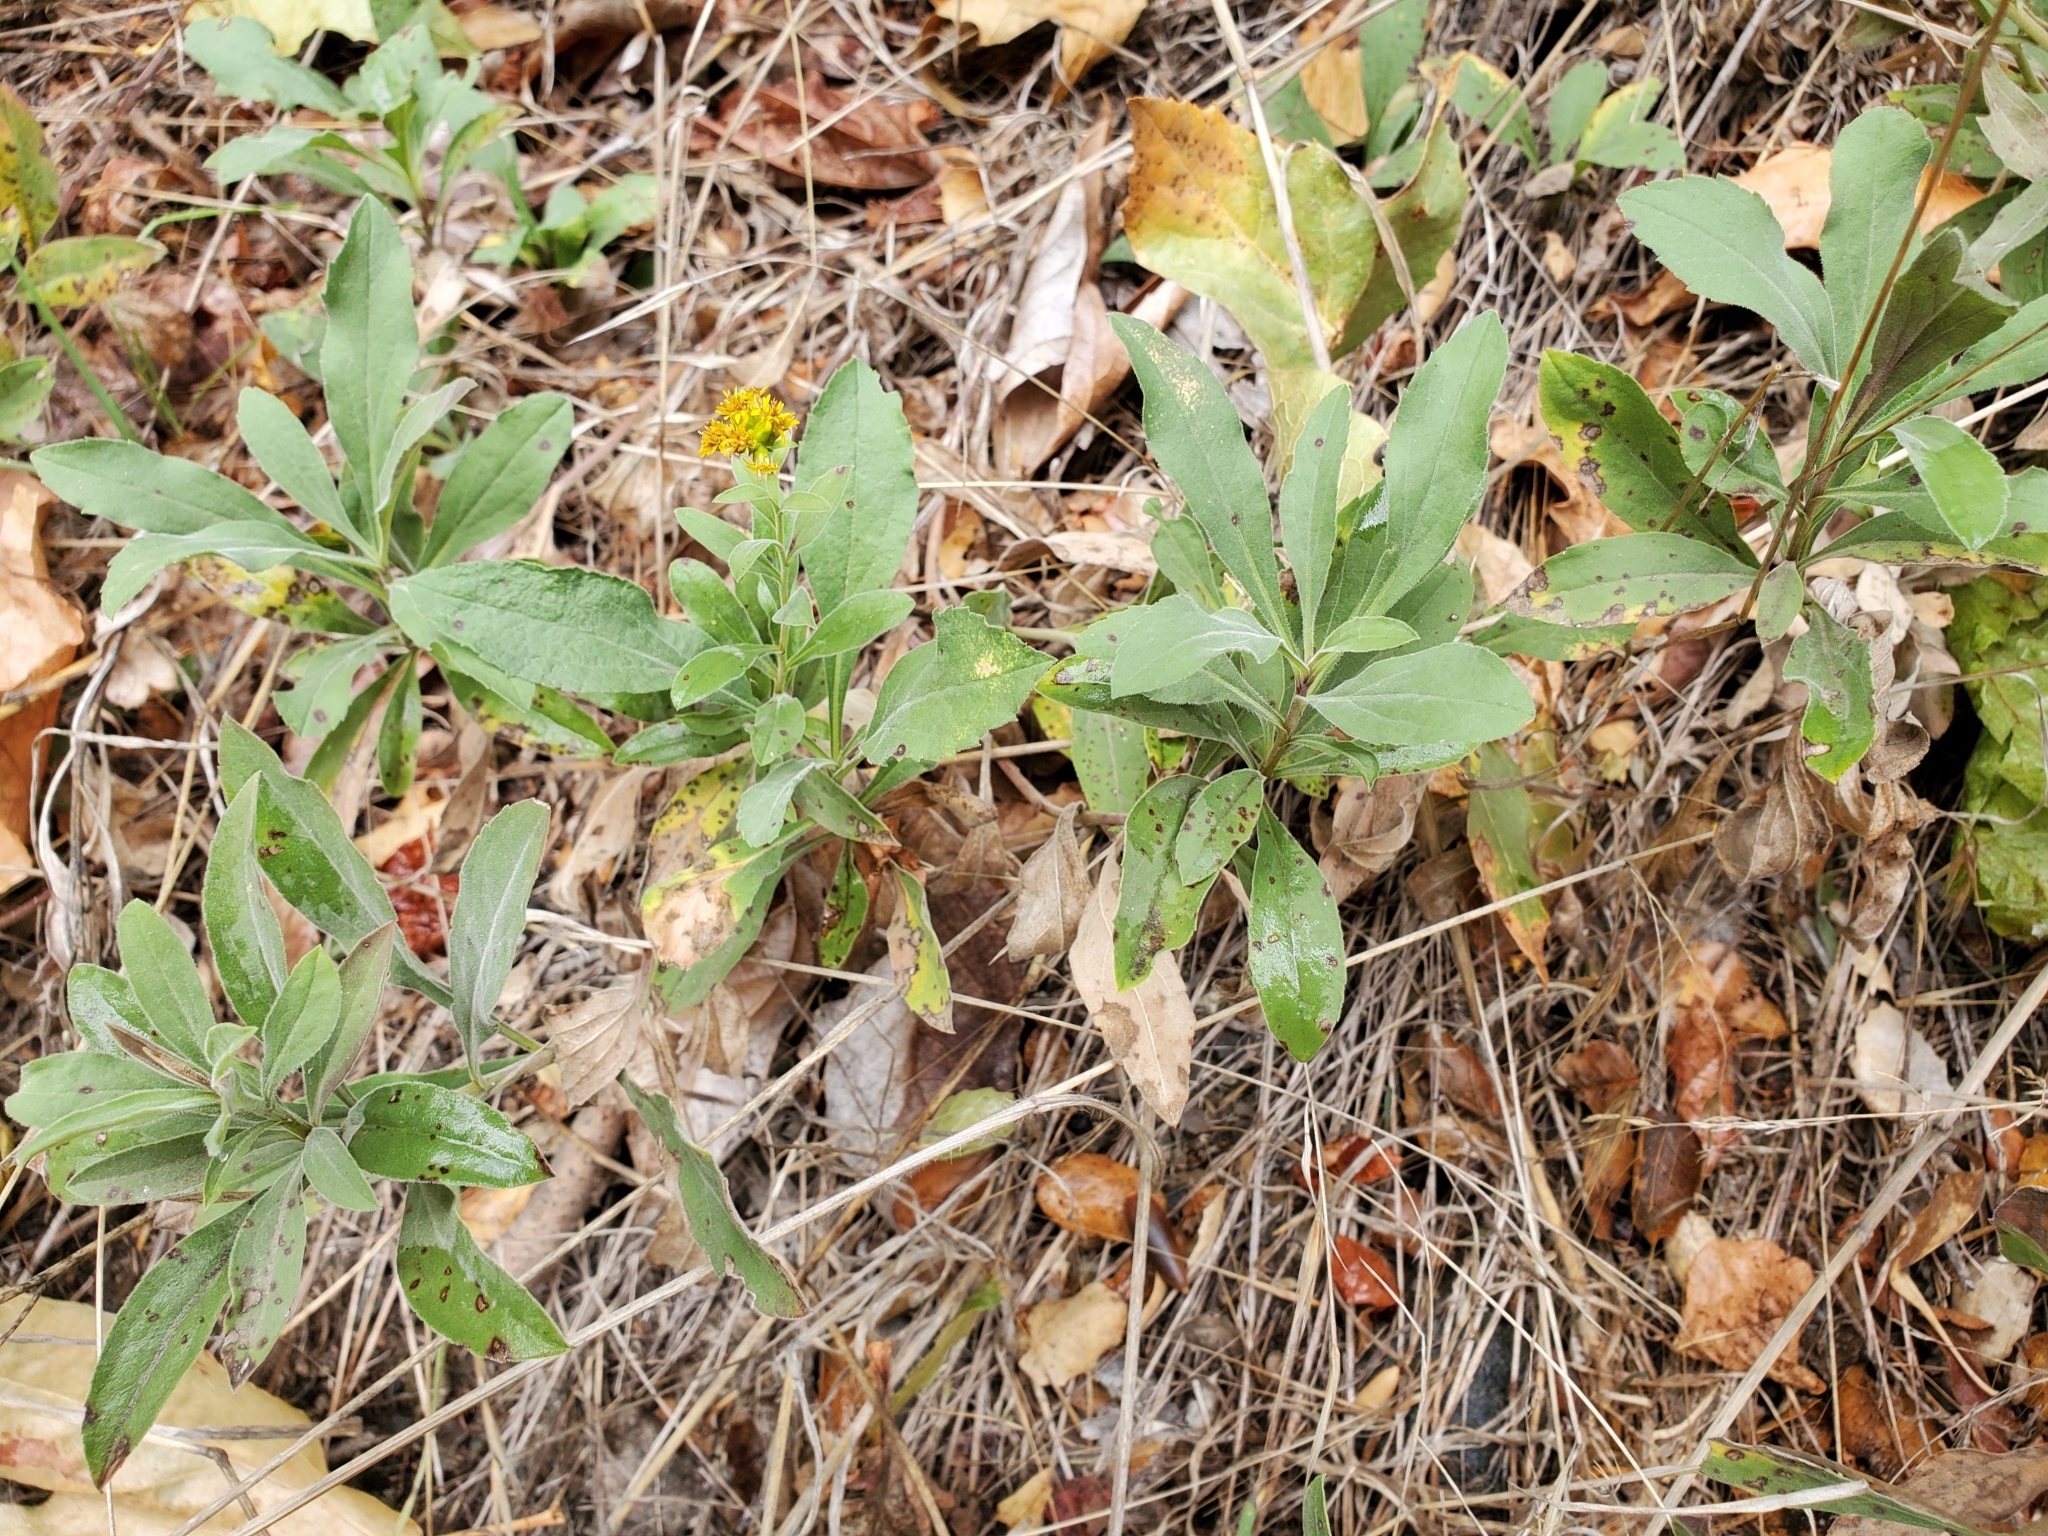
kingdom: Plantae
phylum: Tracheophyta
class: Magnoliopsida
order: Asterales
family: Asteraceae
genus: Solidago
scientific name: Solidago californica
